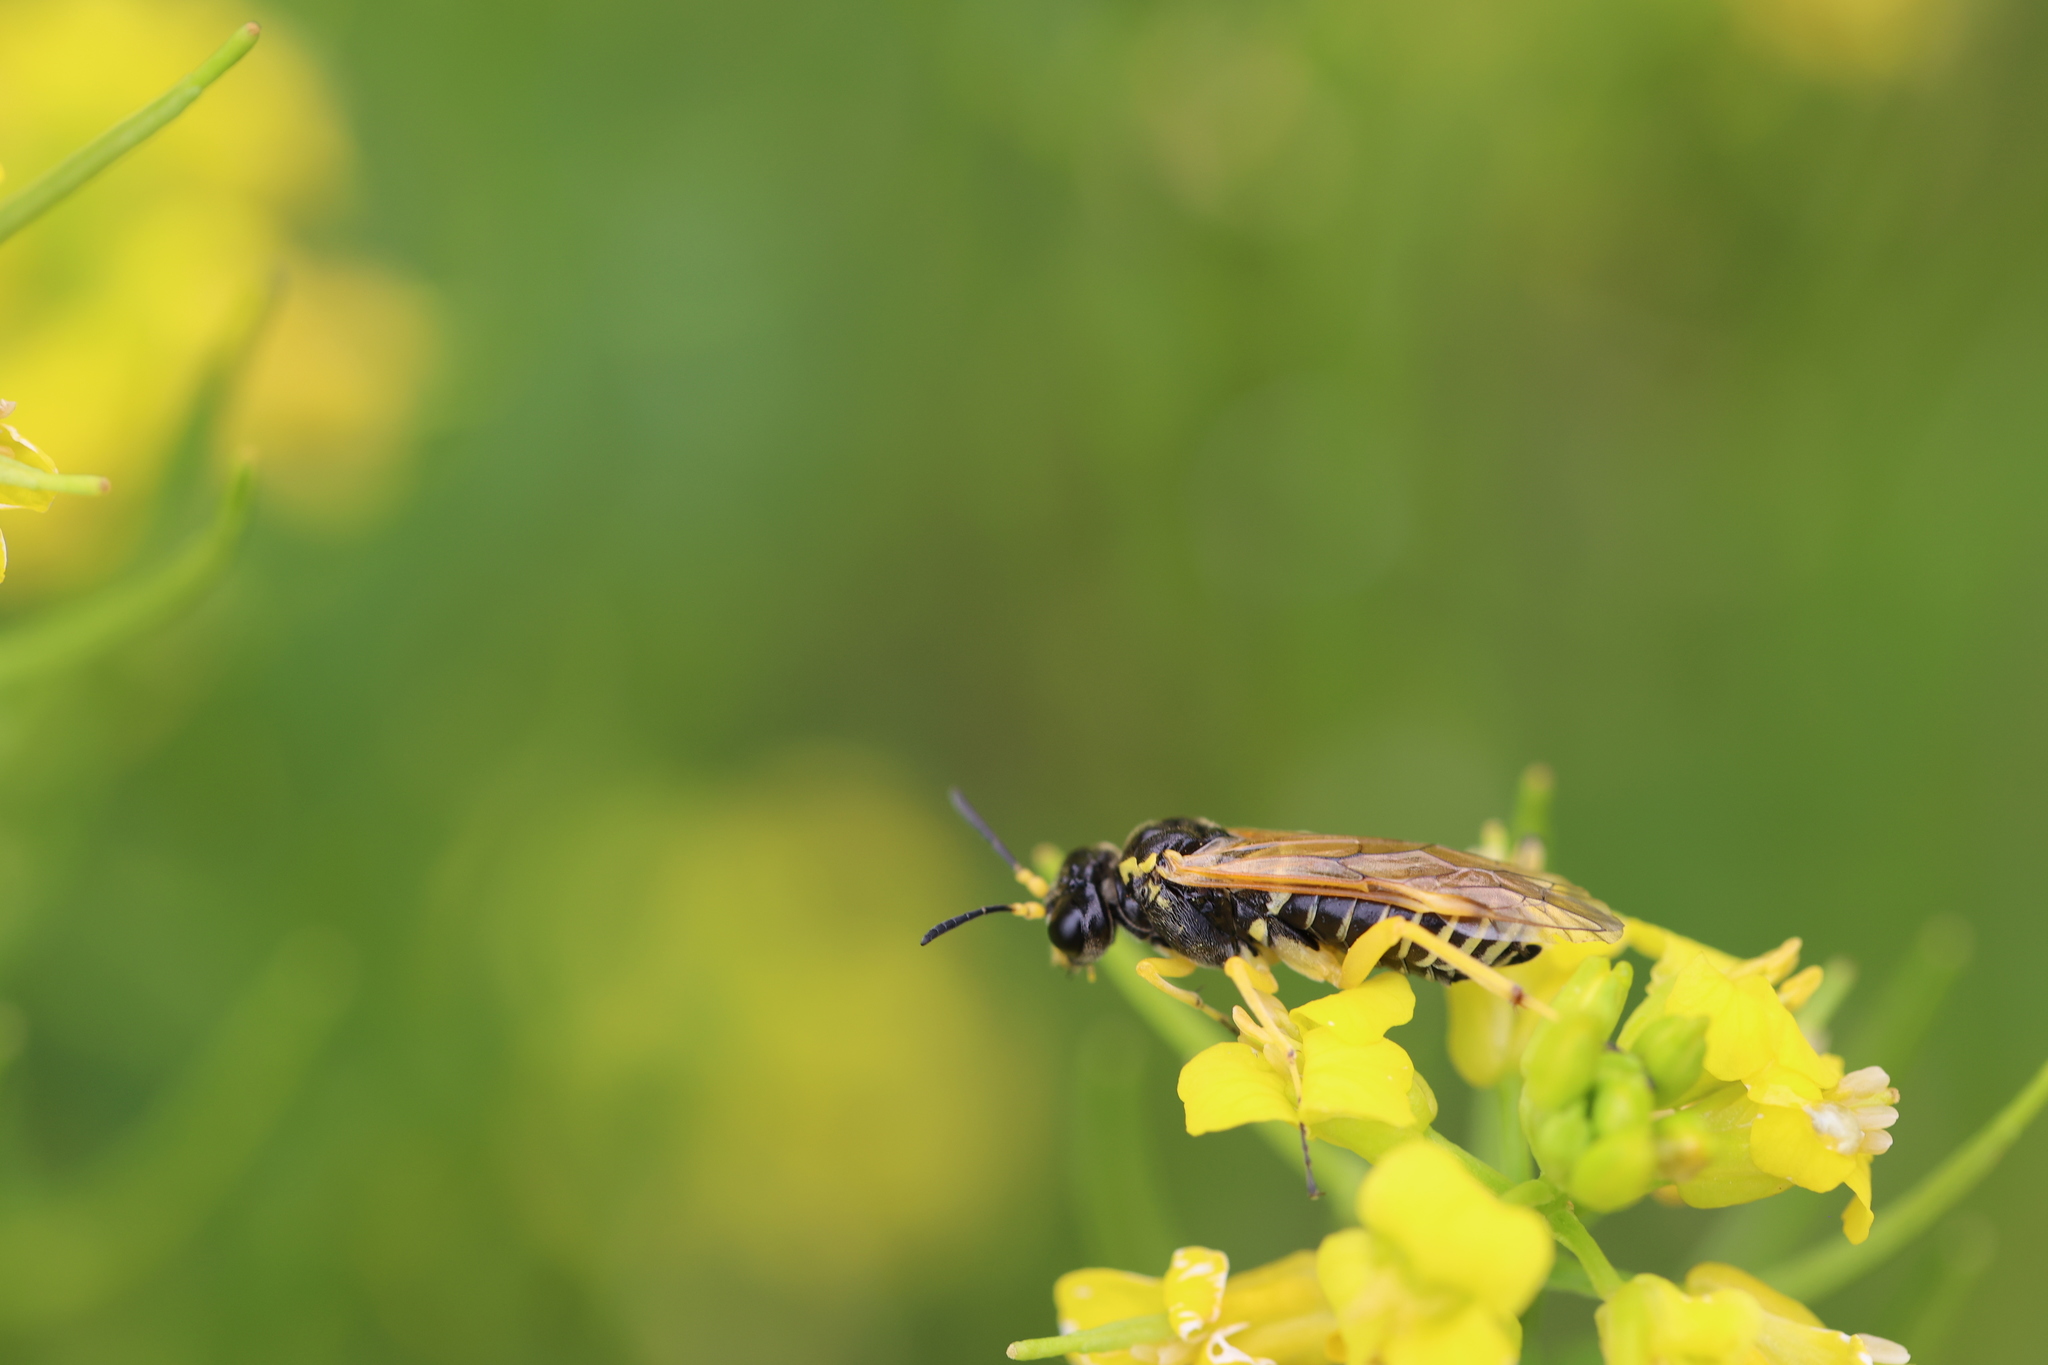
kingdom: Animalia
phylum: Arthropoda
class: Insecta
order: Hymenoptera
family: Tenthredinidae
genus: Tenthredo
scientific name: Tenthredo flaveola
